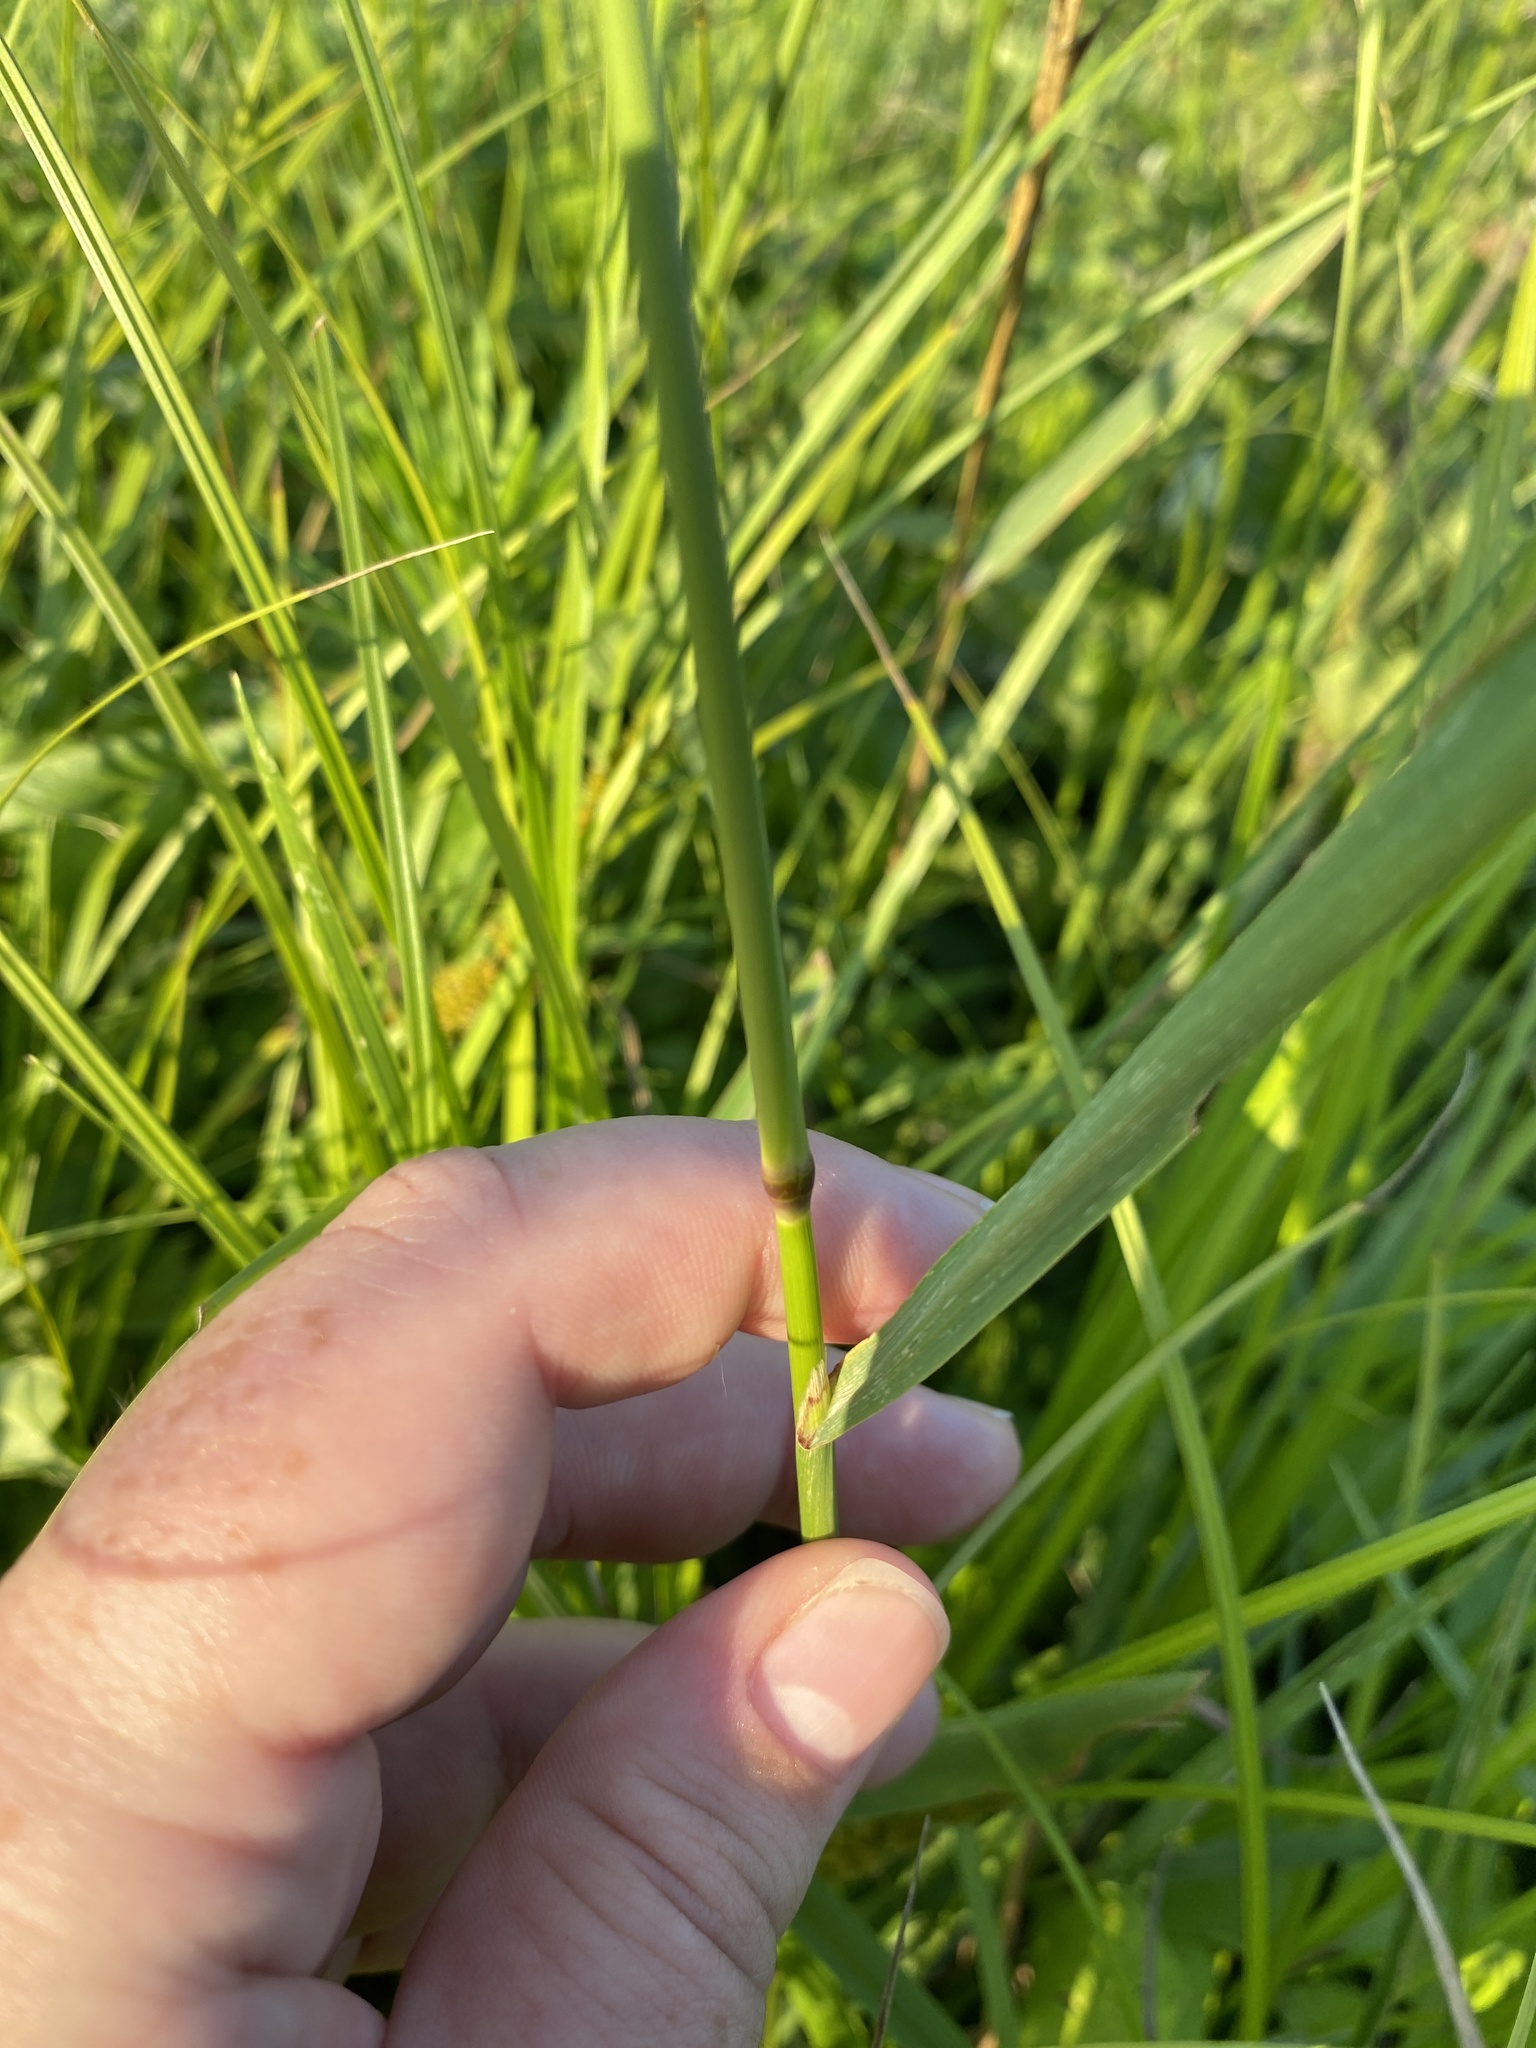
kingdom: Plantae
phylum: Tracheophyta
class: Liliopsida
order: Poales
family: Poaceae
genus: Agrostis
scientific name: Agrostis gigantea
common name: Black bent
